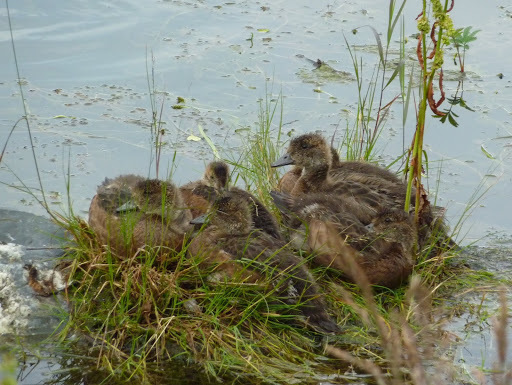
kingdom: Animalia
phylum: Chordata
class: Aves
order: Anseriformes
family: Anatidae
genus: Mareca
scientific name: Mareca americana
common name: American wigeon
